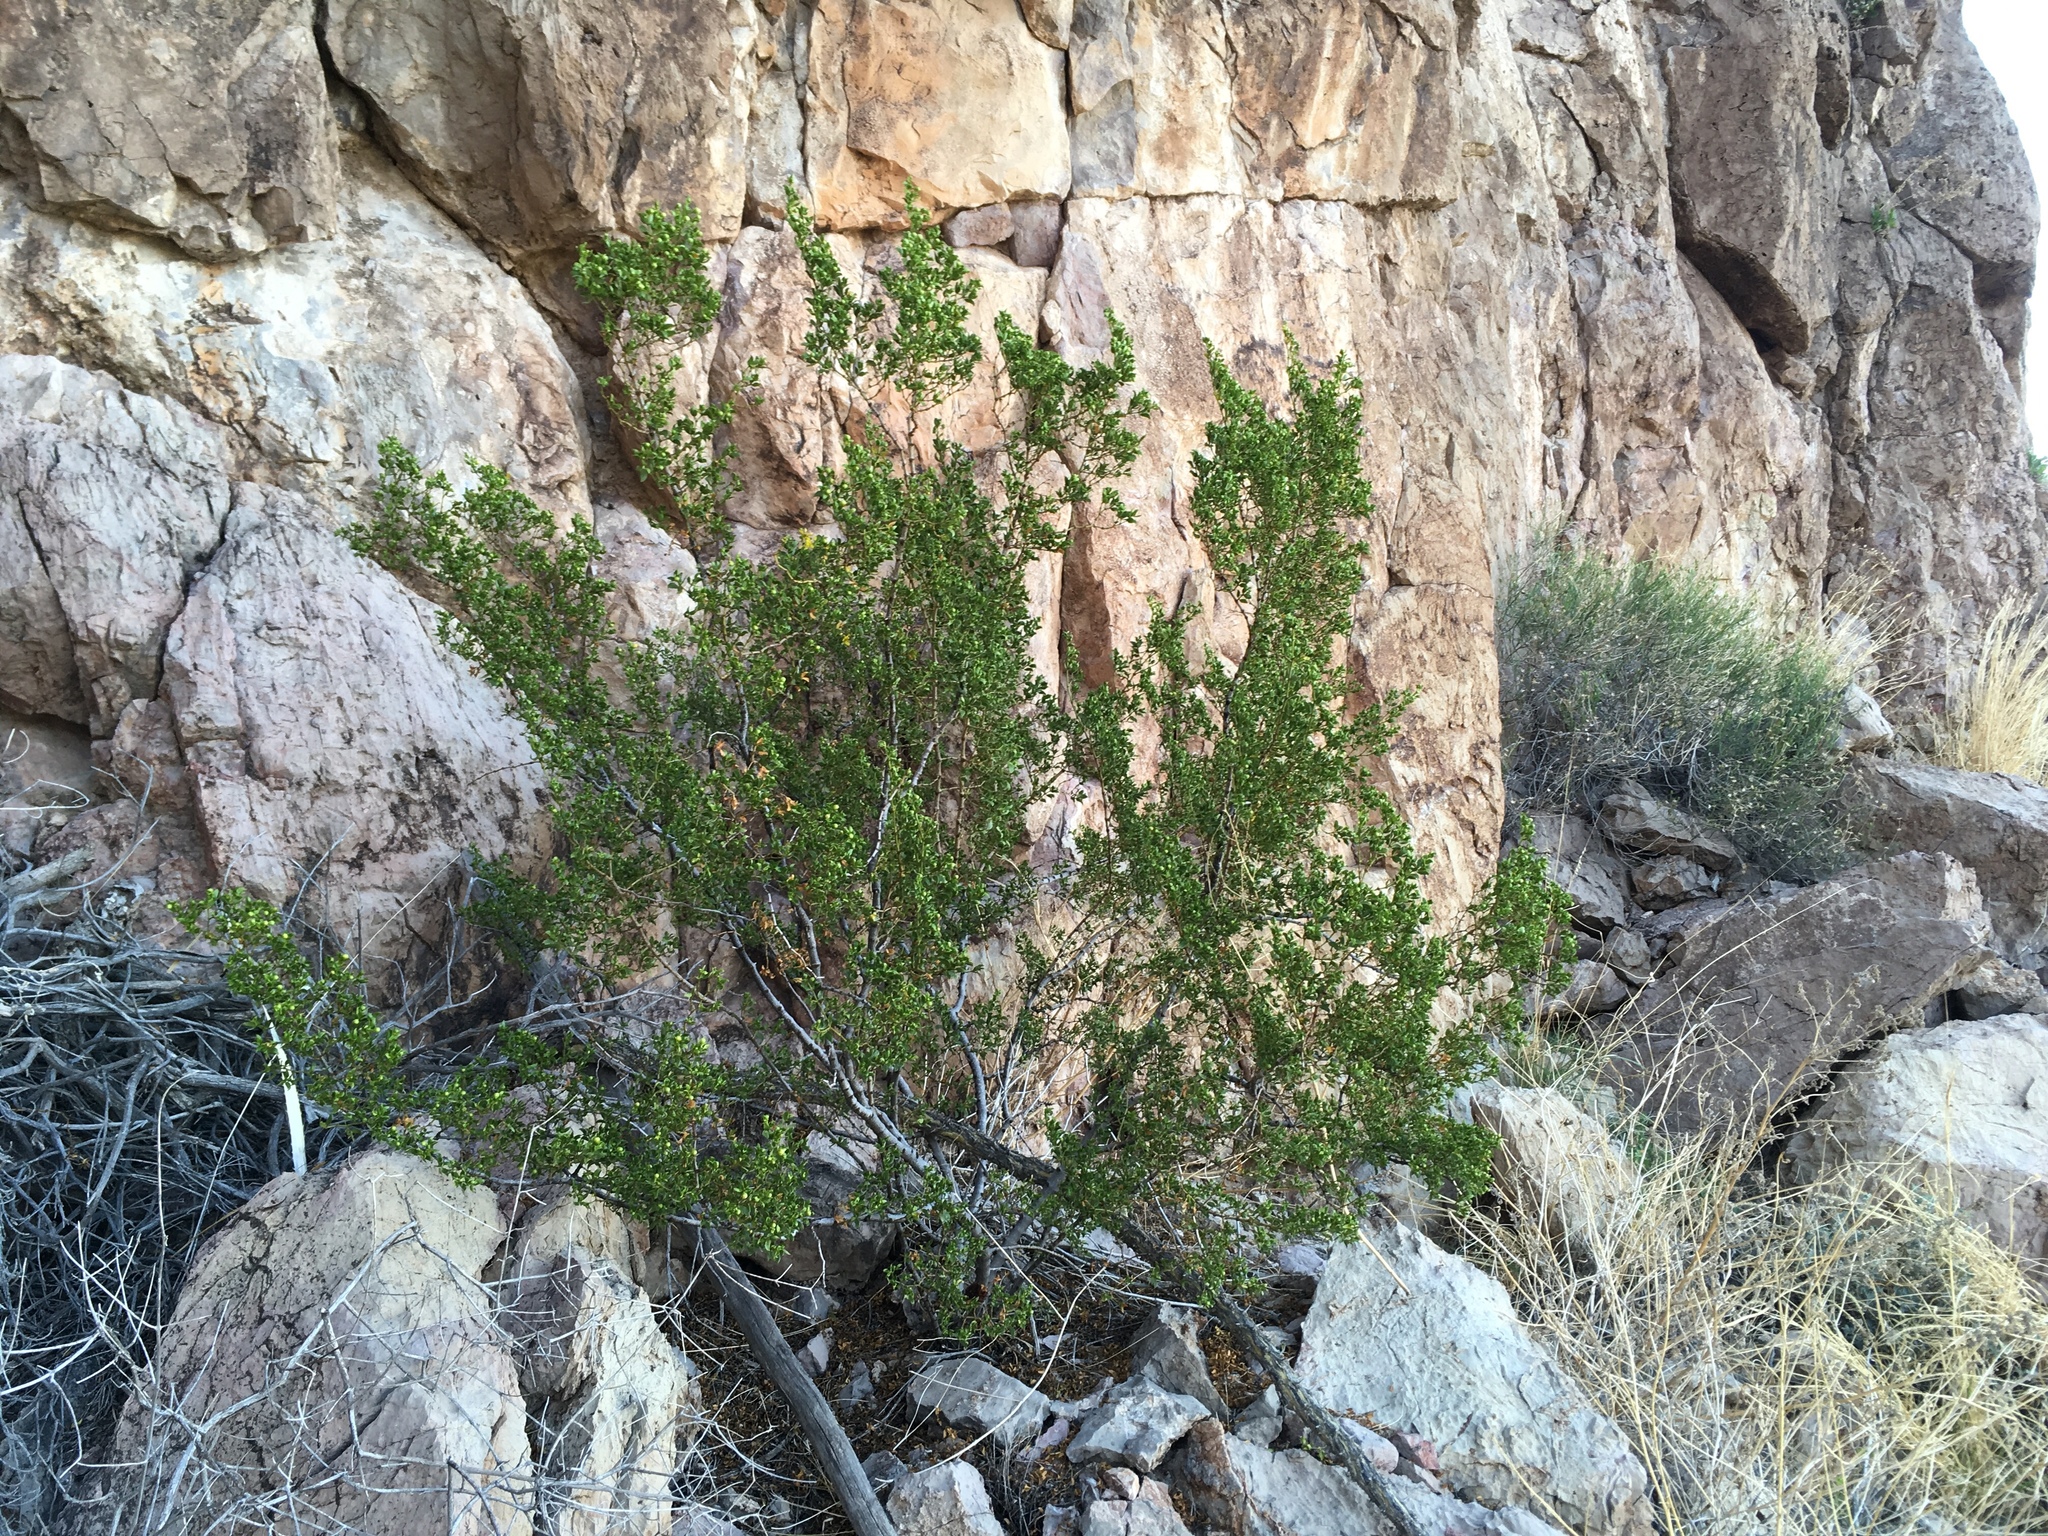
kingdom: Plantae
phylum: Tracheophyta
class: Magnoliopsida
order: Zygophyllales
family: Zygophyllaceae
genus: Larrea
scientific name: Larrea tridentata
